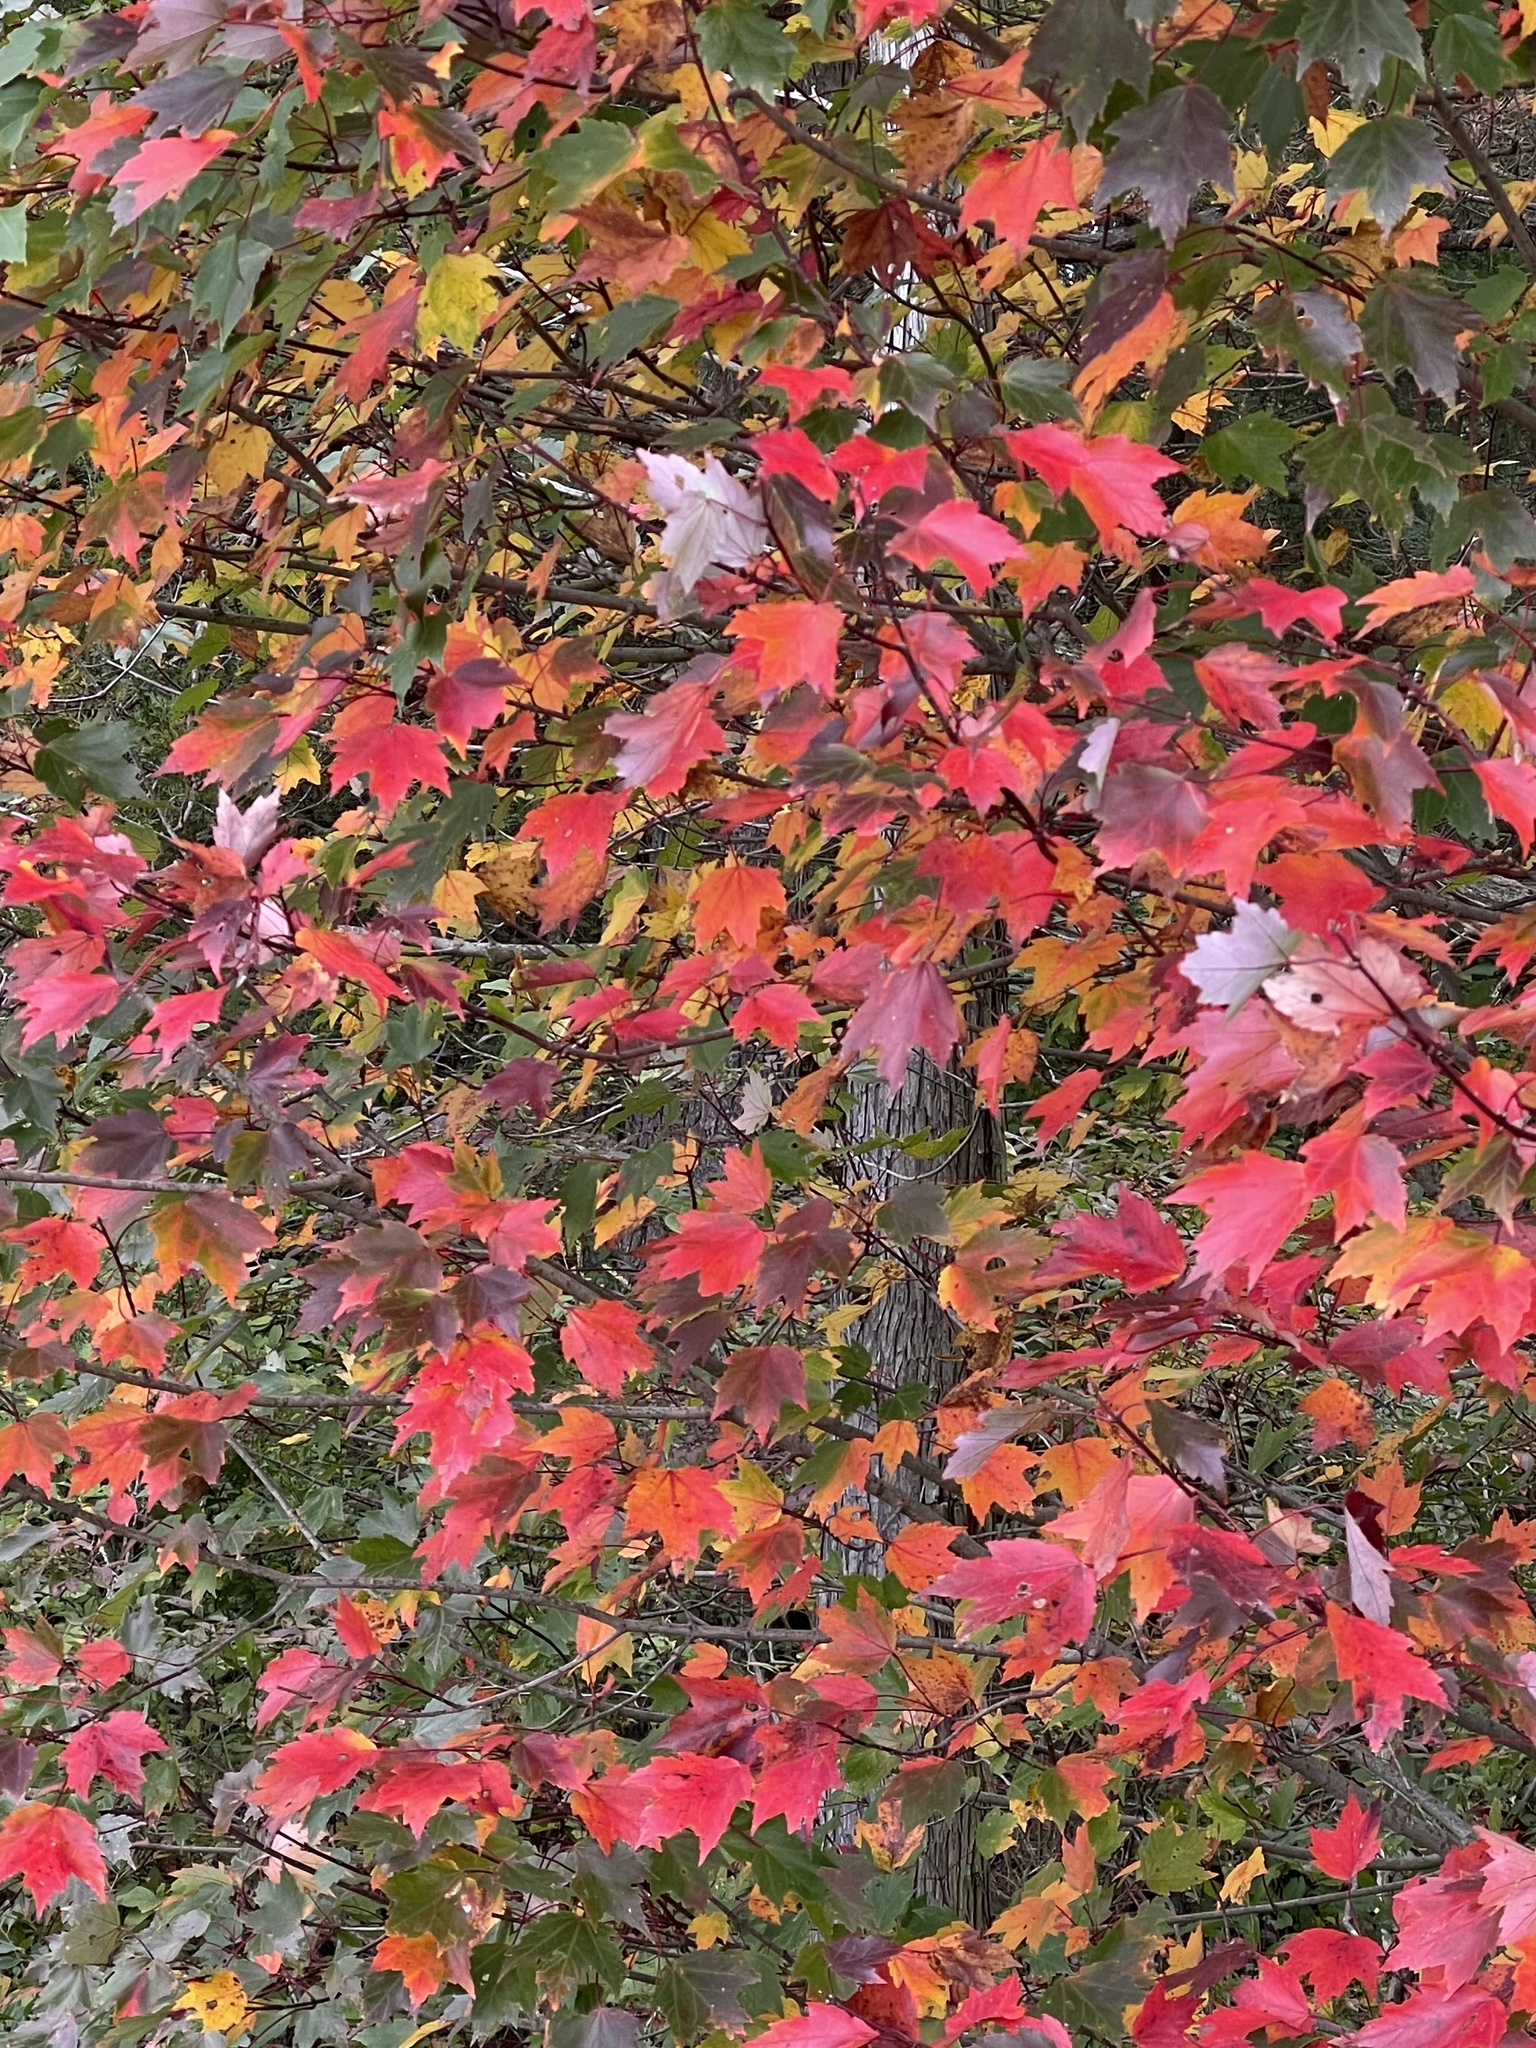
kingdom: Plantae
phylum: Tracheophyta
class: Magnoliopsida
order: Sapindales
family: Sapindaceae
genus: Acer
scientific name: Acer rubrum
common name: Red maple
